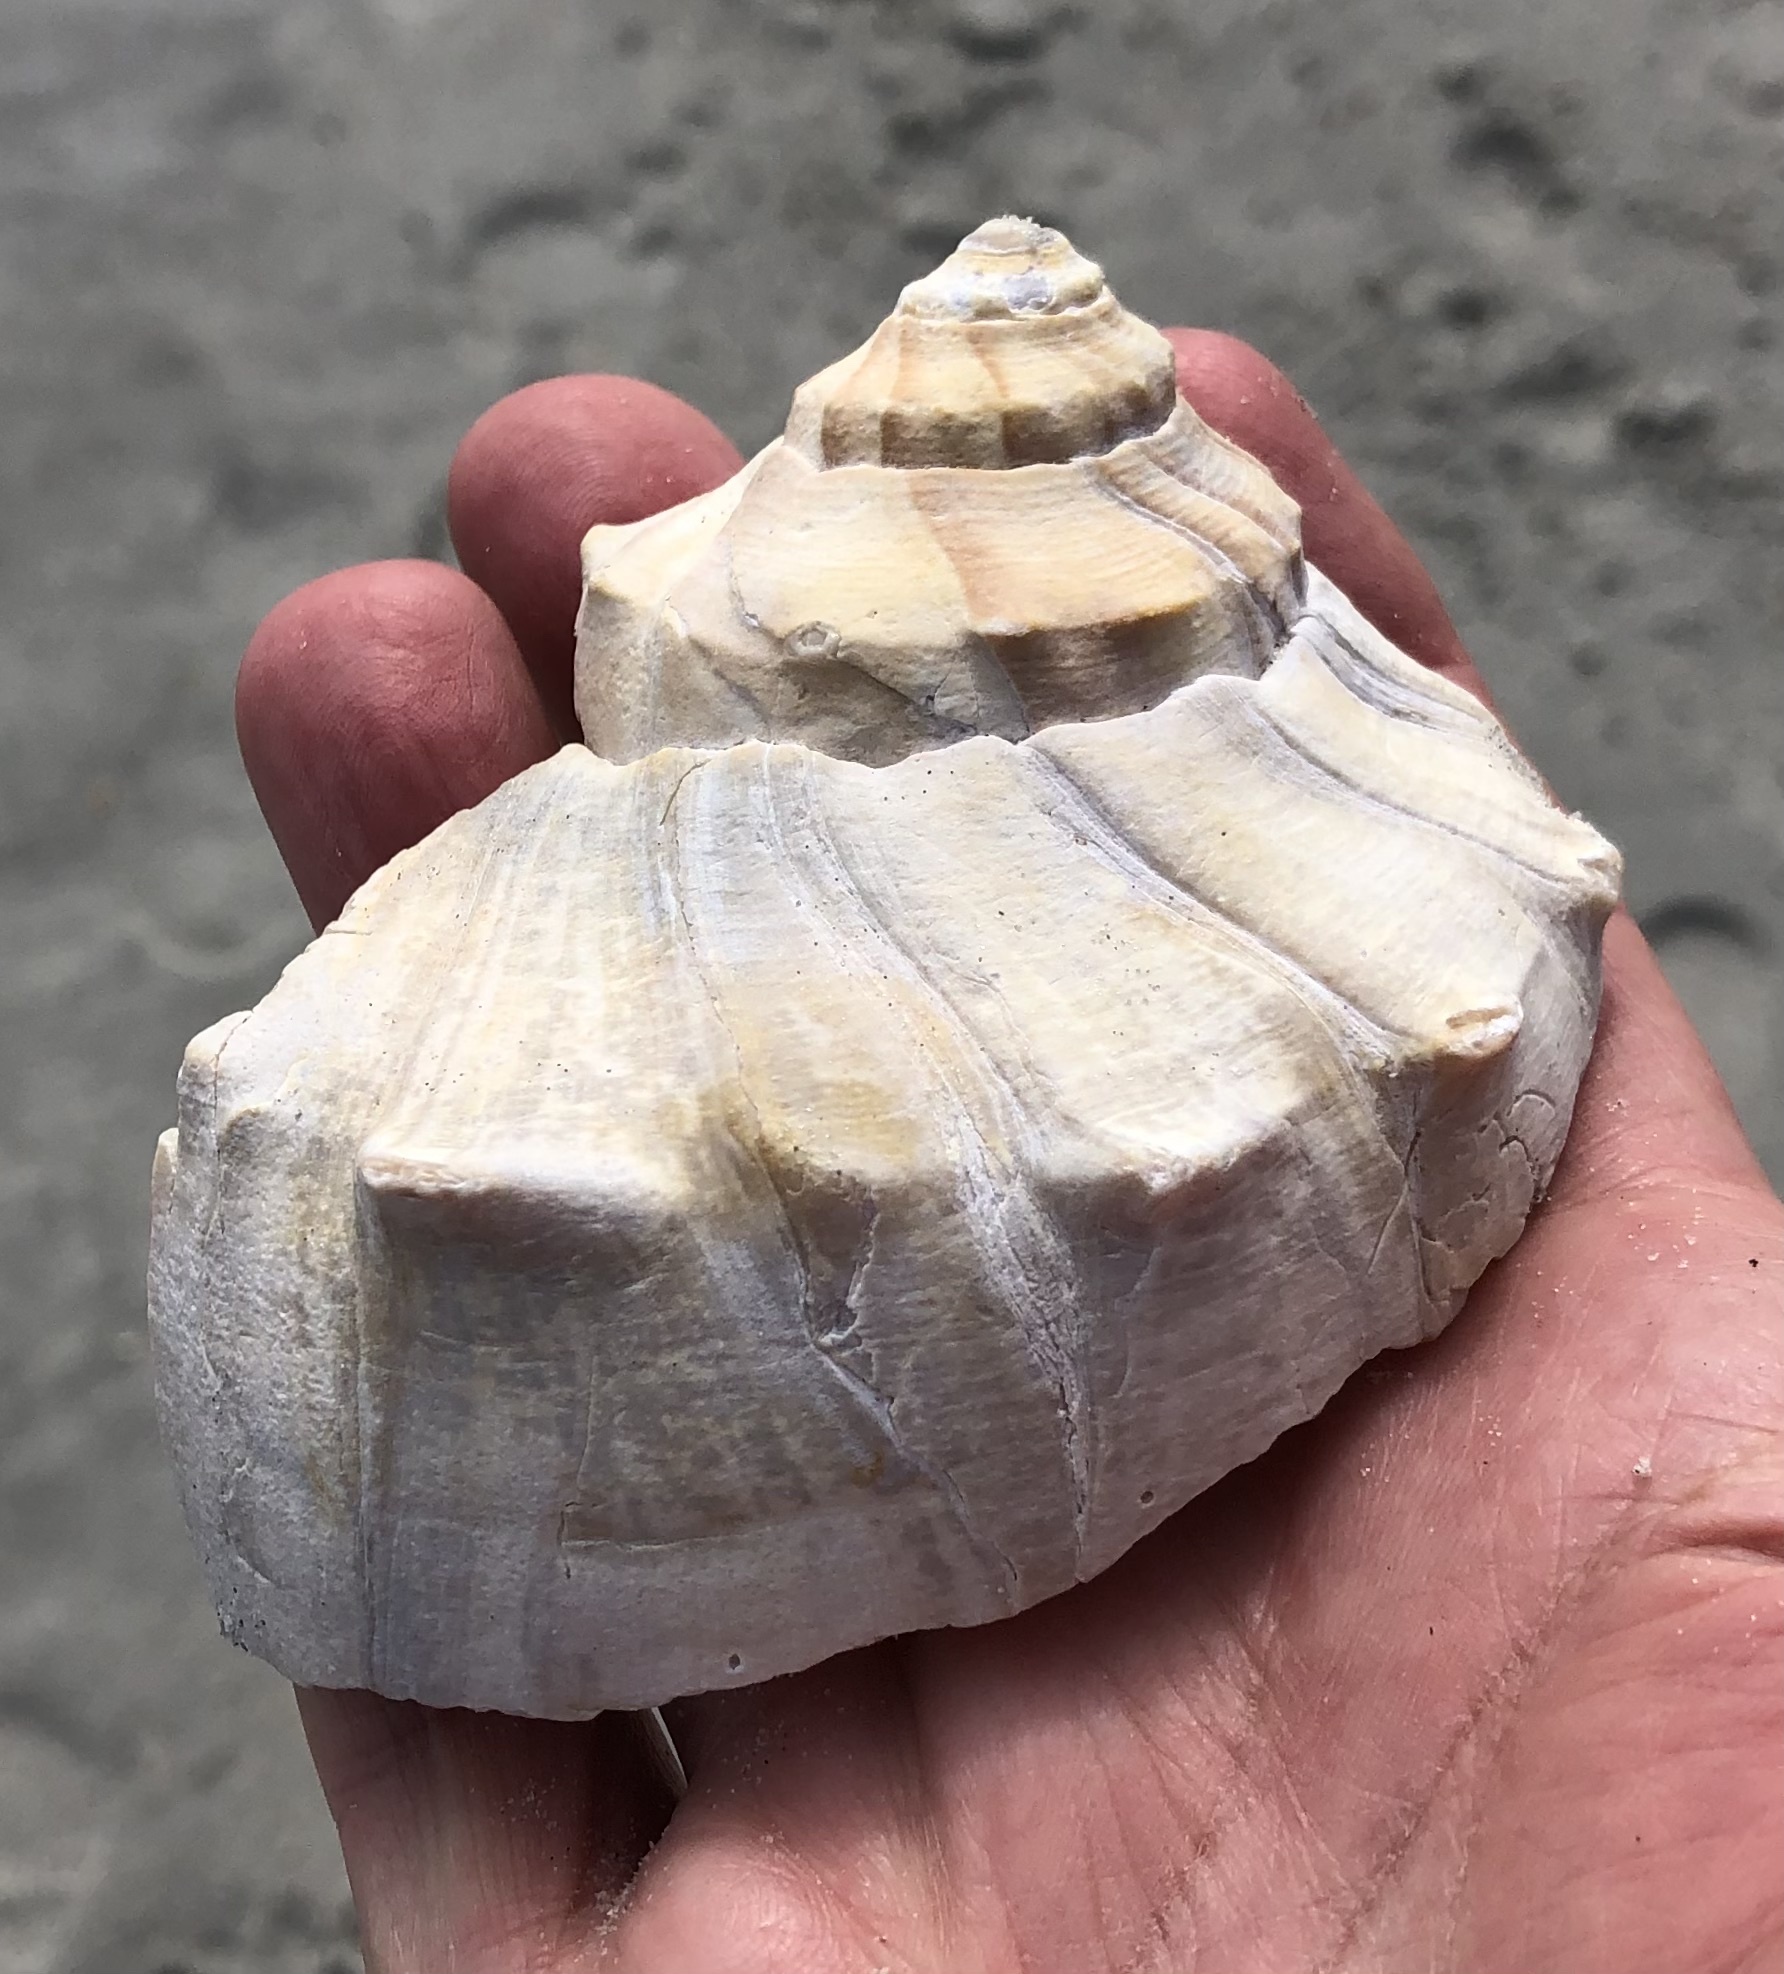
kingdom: Animalia
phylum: Mollusca
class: Gastropoda
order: Neogastropoda
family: Busyconidae
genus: Busycon
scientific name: Busycon carica
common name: Knobbed whelk
